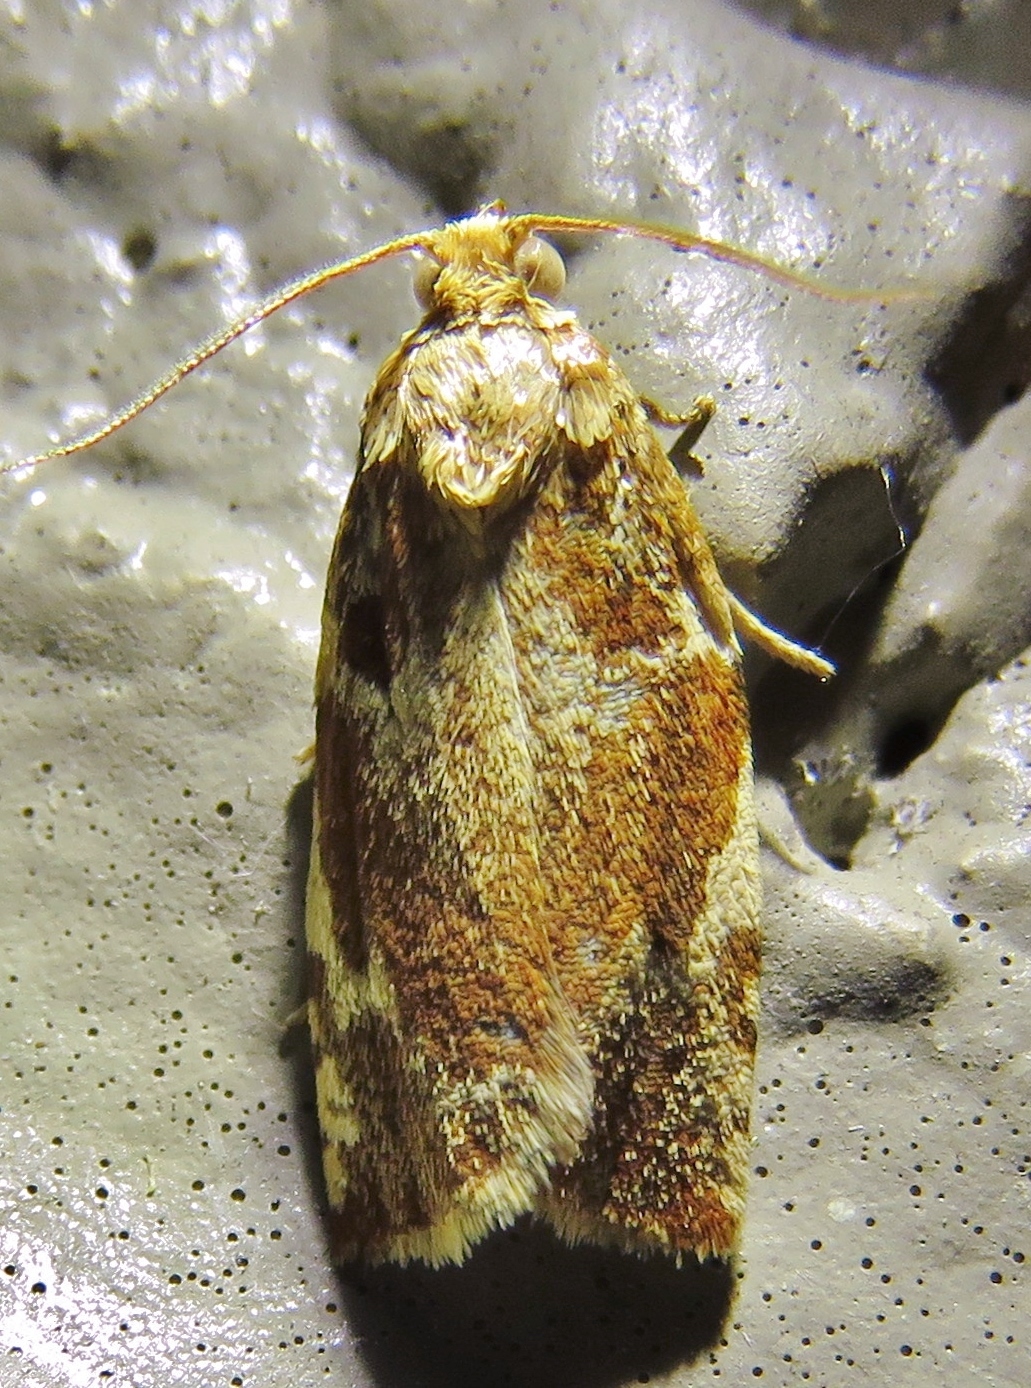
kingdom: Animalia
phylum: Arthropoda
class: Insecta
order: Lepidoptera
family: Tortricidae
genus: Archips
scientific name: Archips semiferanus
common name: Oak leafroller
